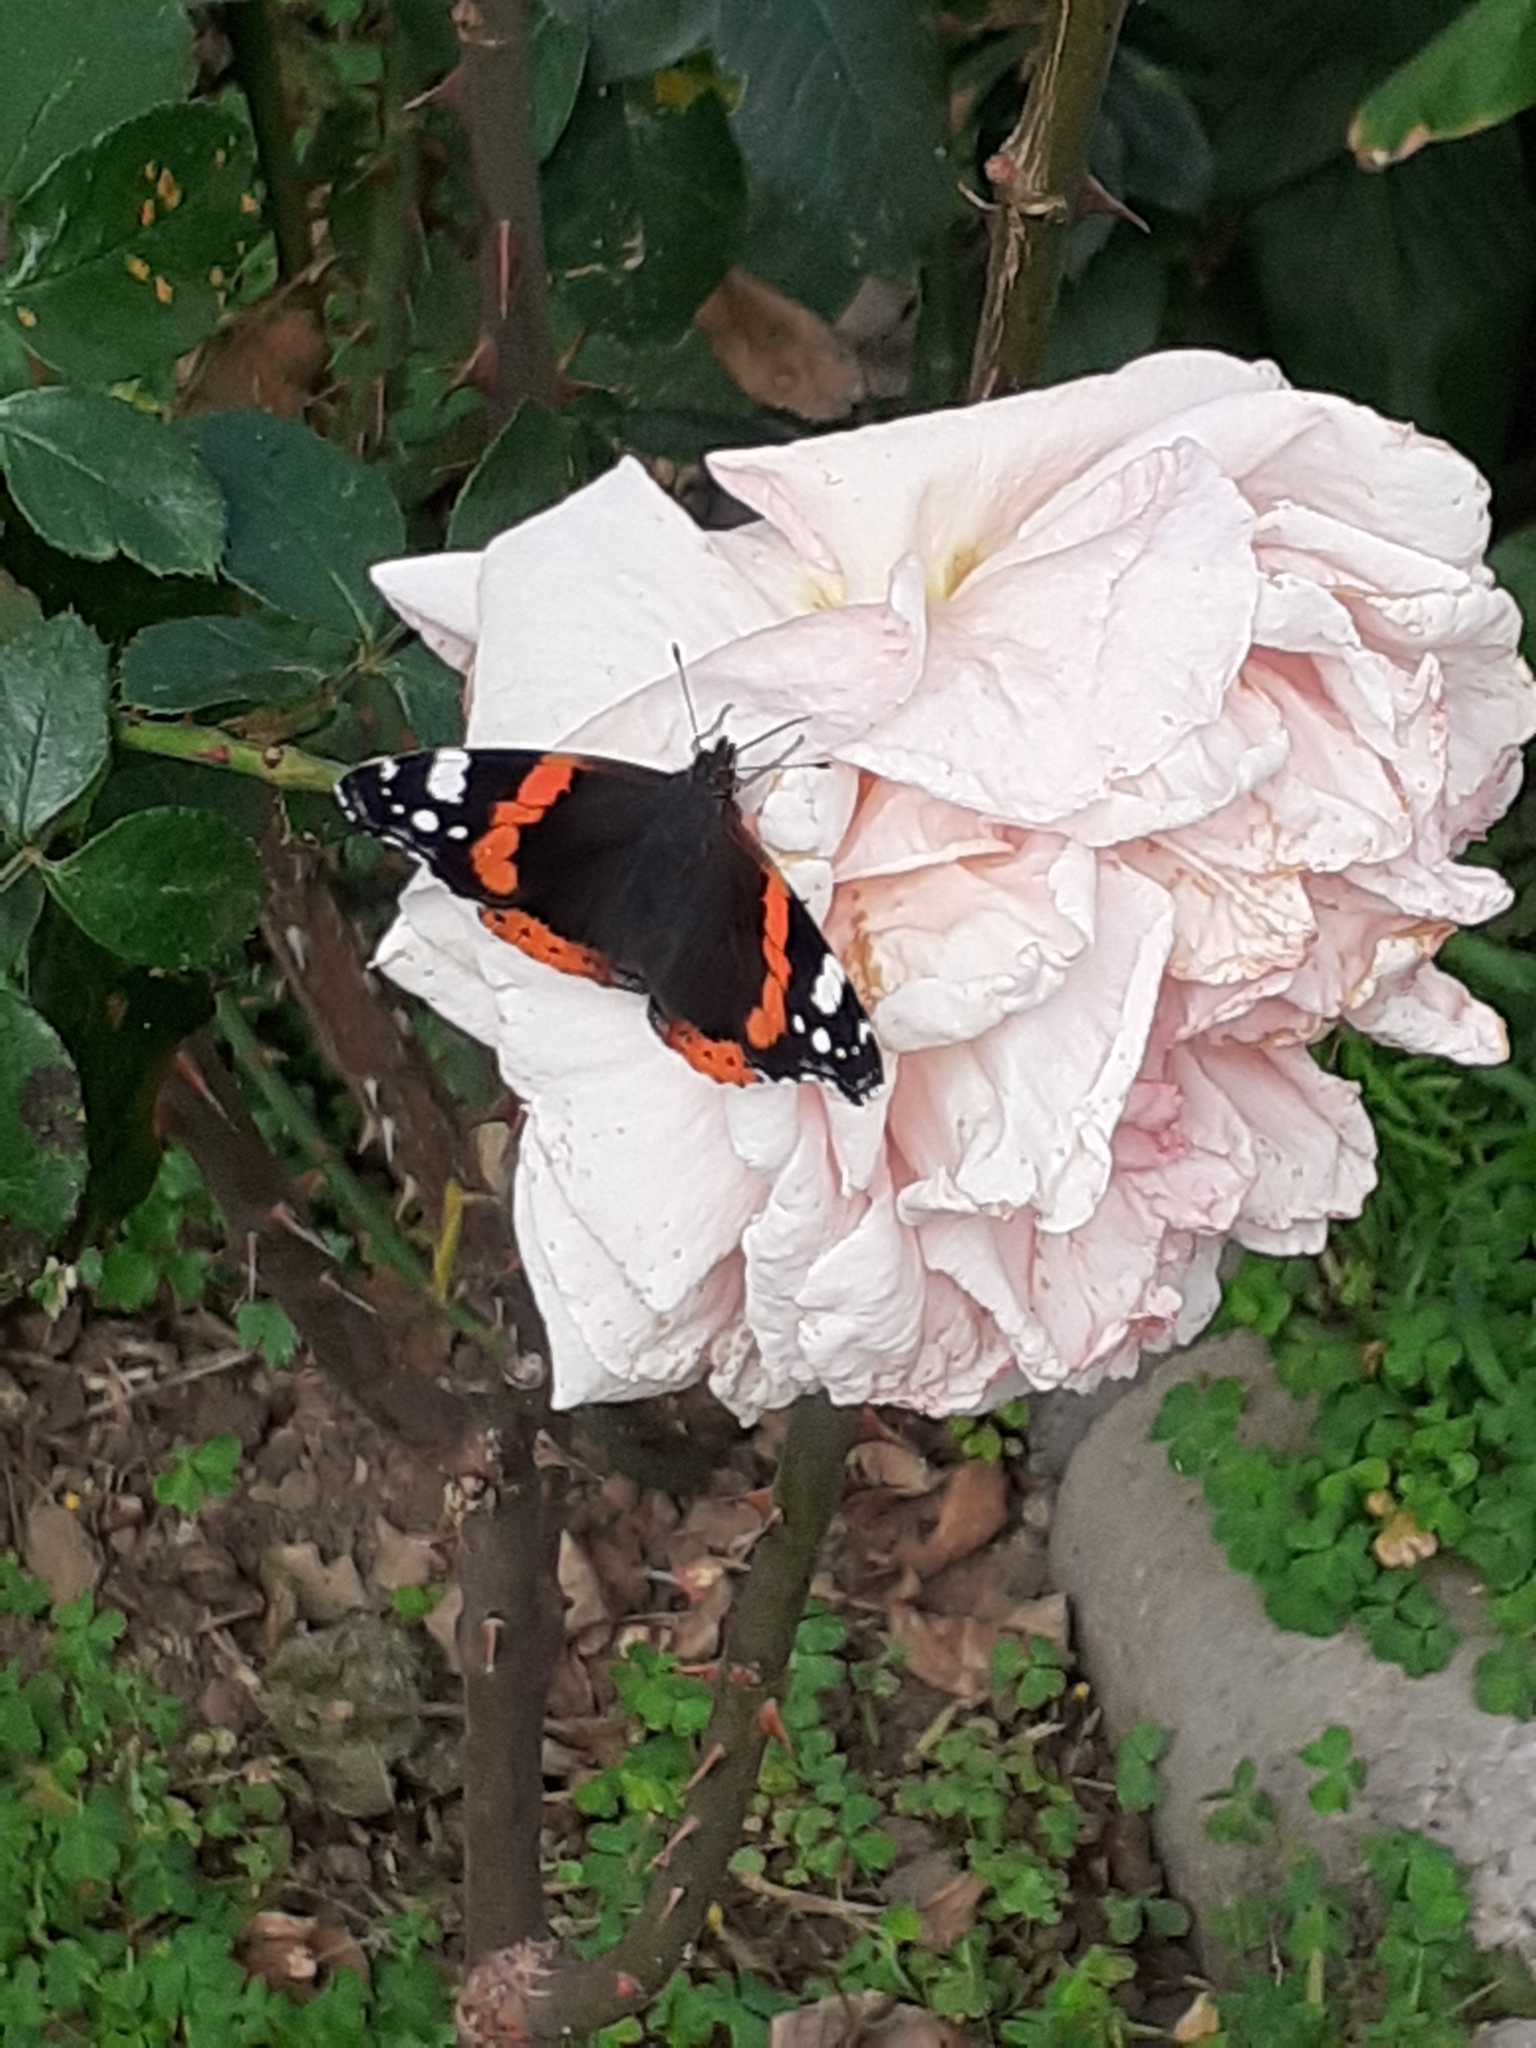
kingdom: Animalia
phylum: Arthropoda
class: Insecta
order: Lepidoptera
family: Nymphalidae
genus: Vanessa
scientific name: Vanessa atalanta
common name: Red admiral
